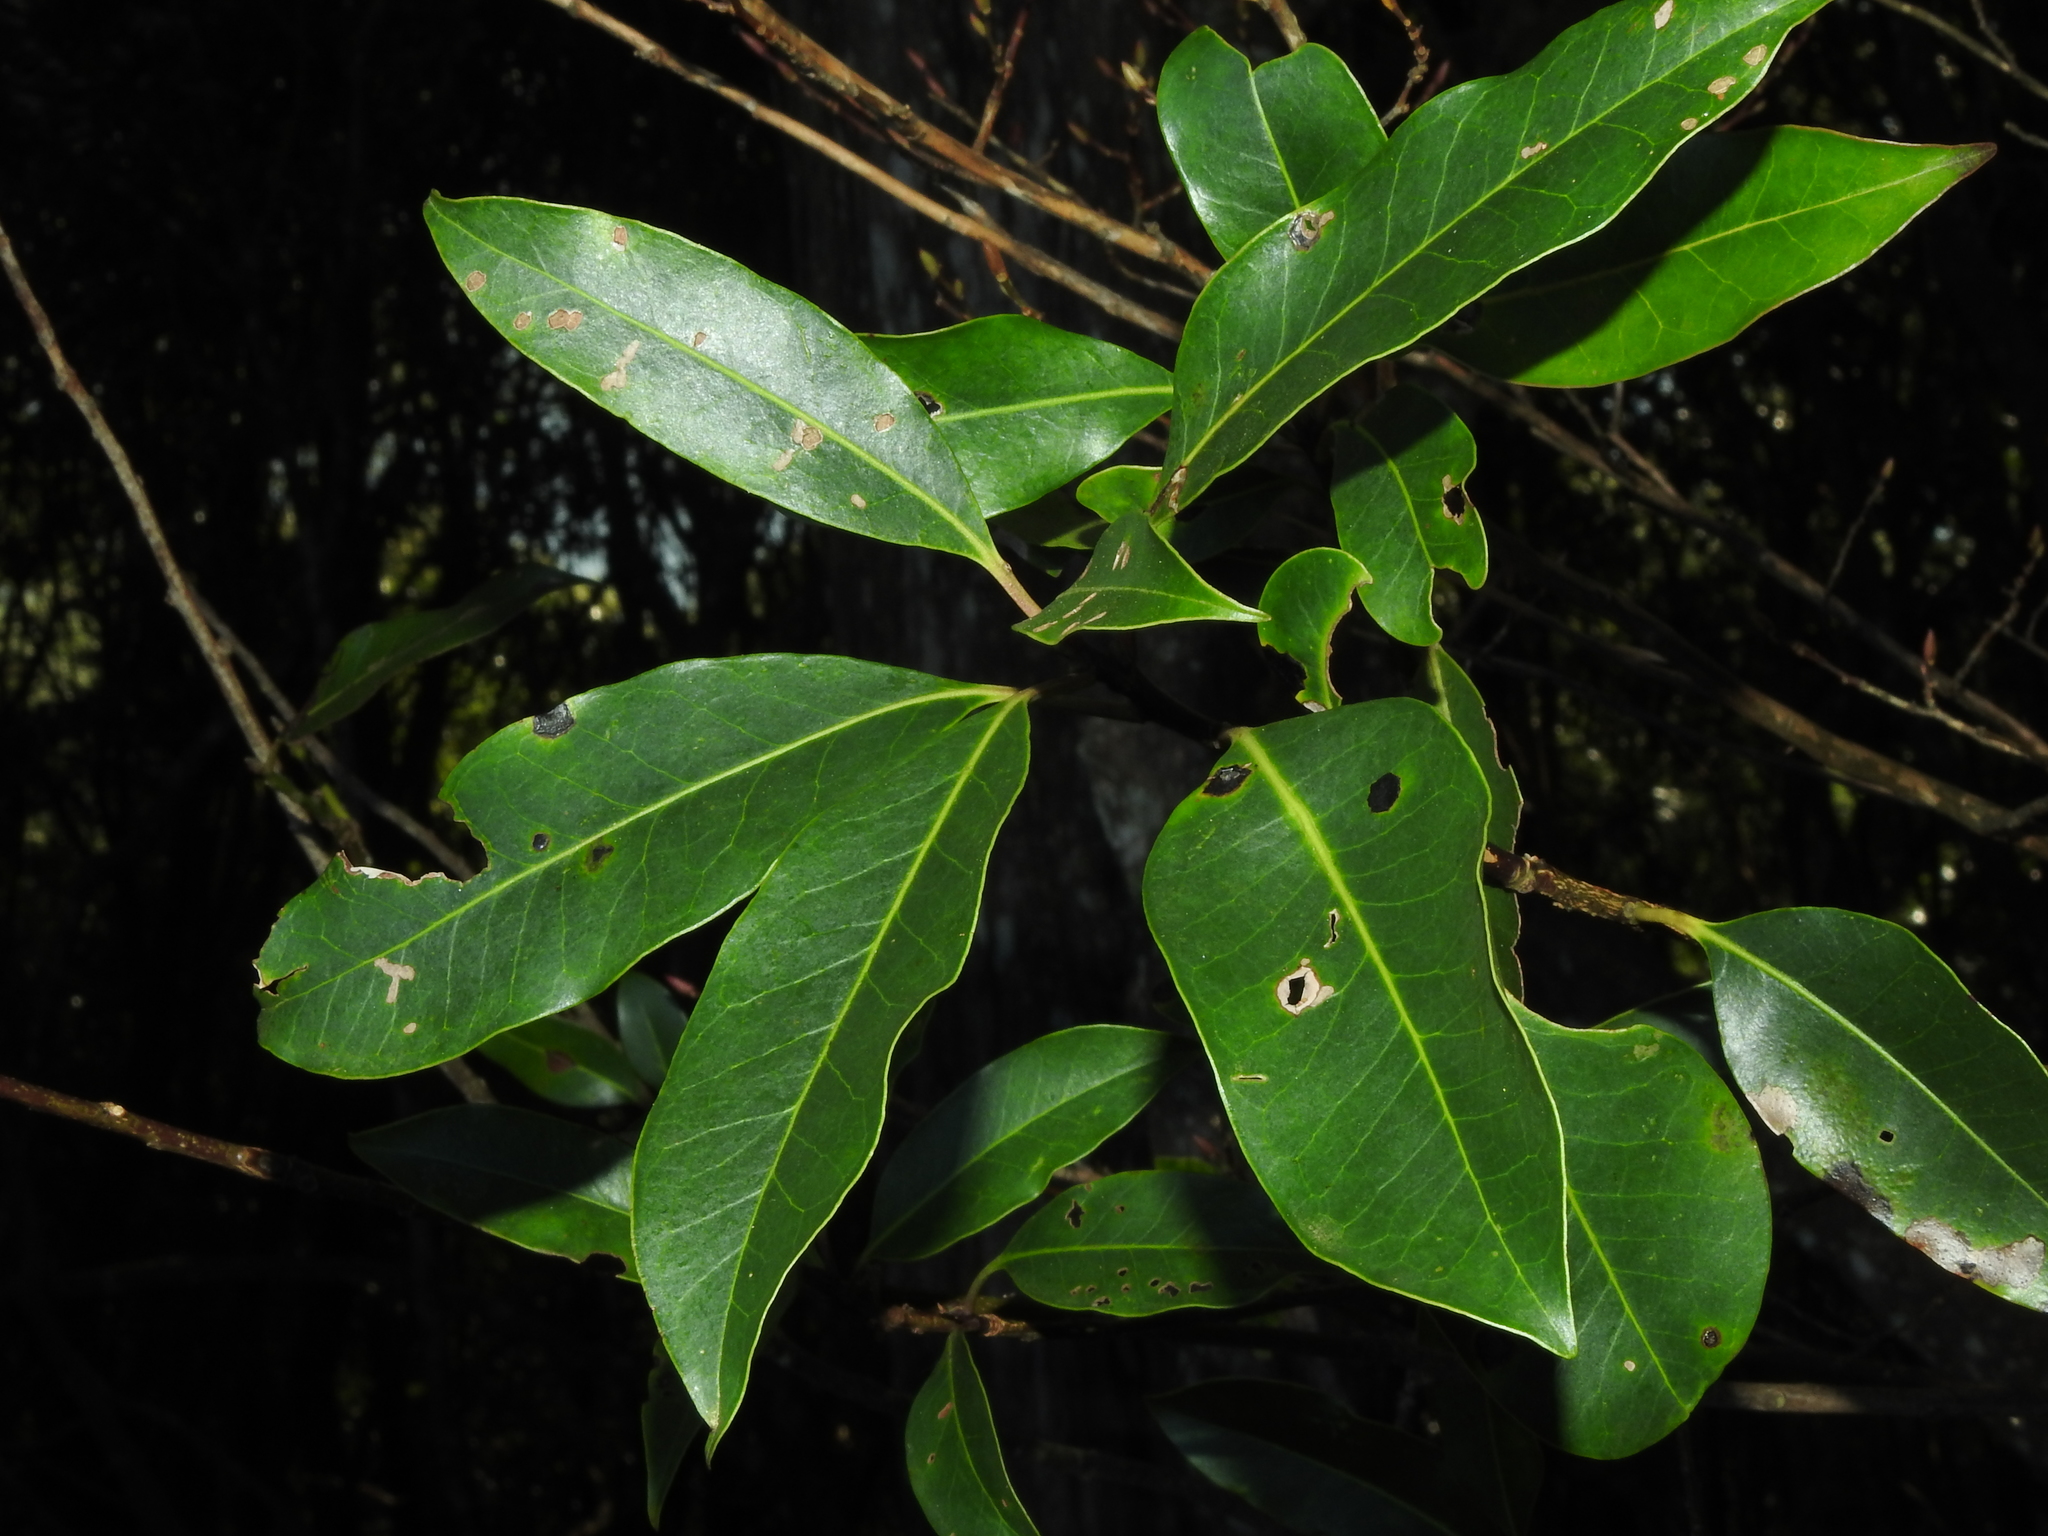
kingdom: Plantae
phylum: Tracheophyta
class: Magnoliopsida
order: Aquifoliales
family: Aquifoliaceae
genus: Ilex
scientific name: Ilex tugitakayamensis
